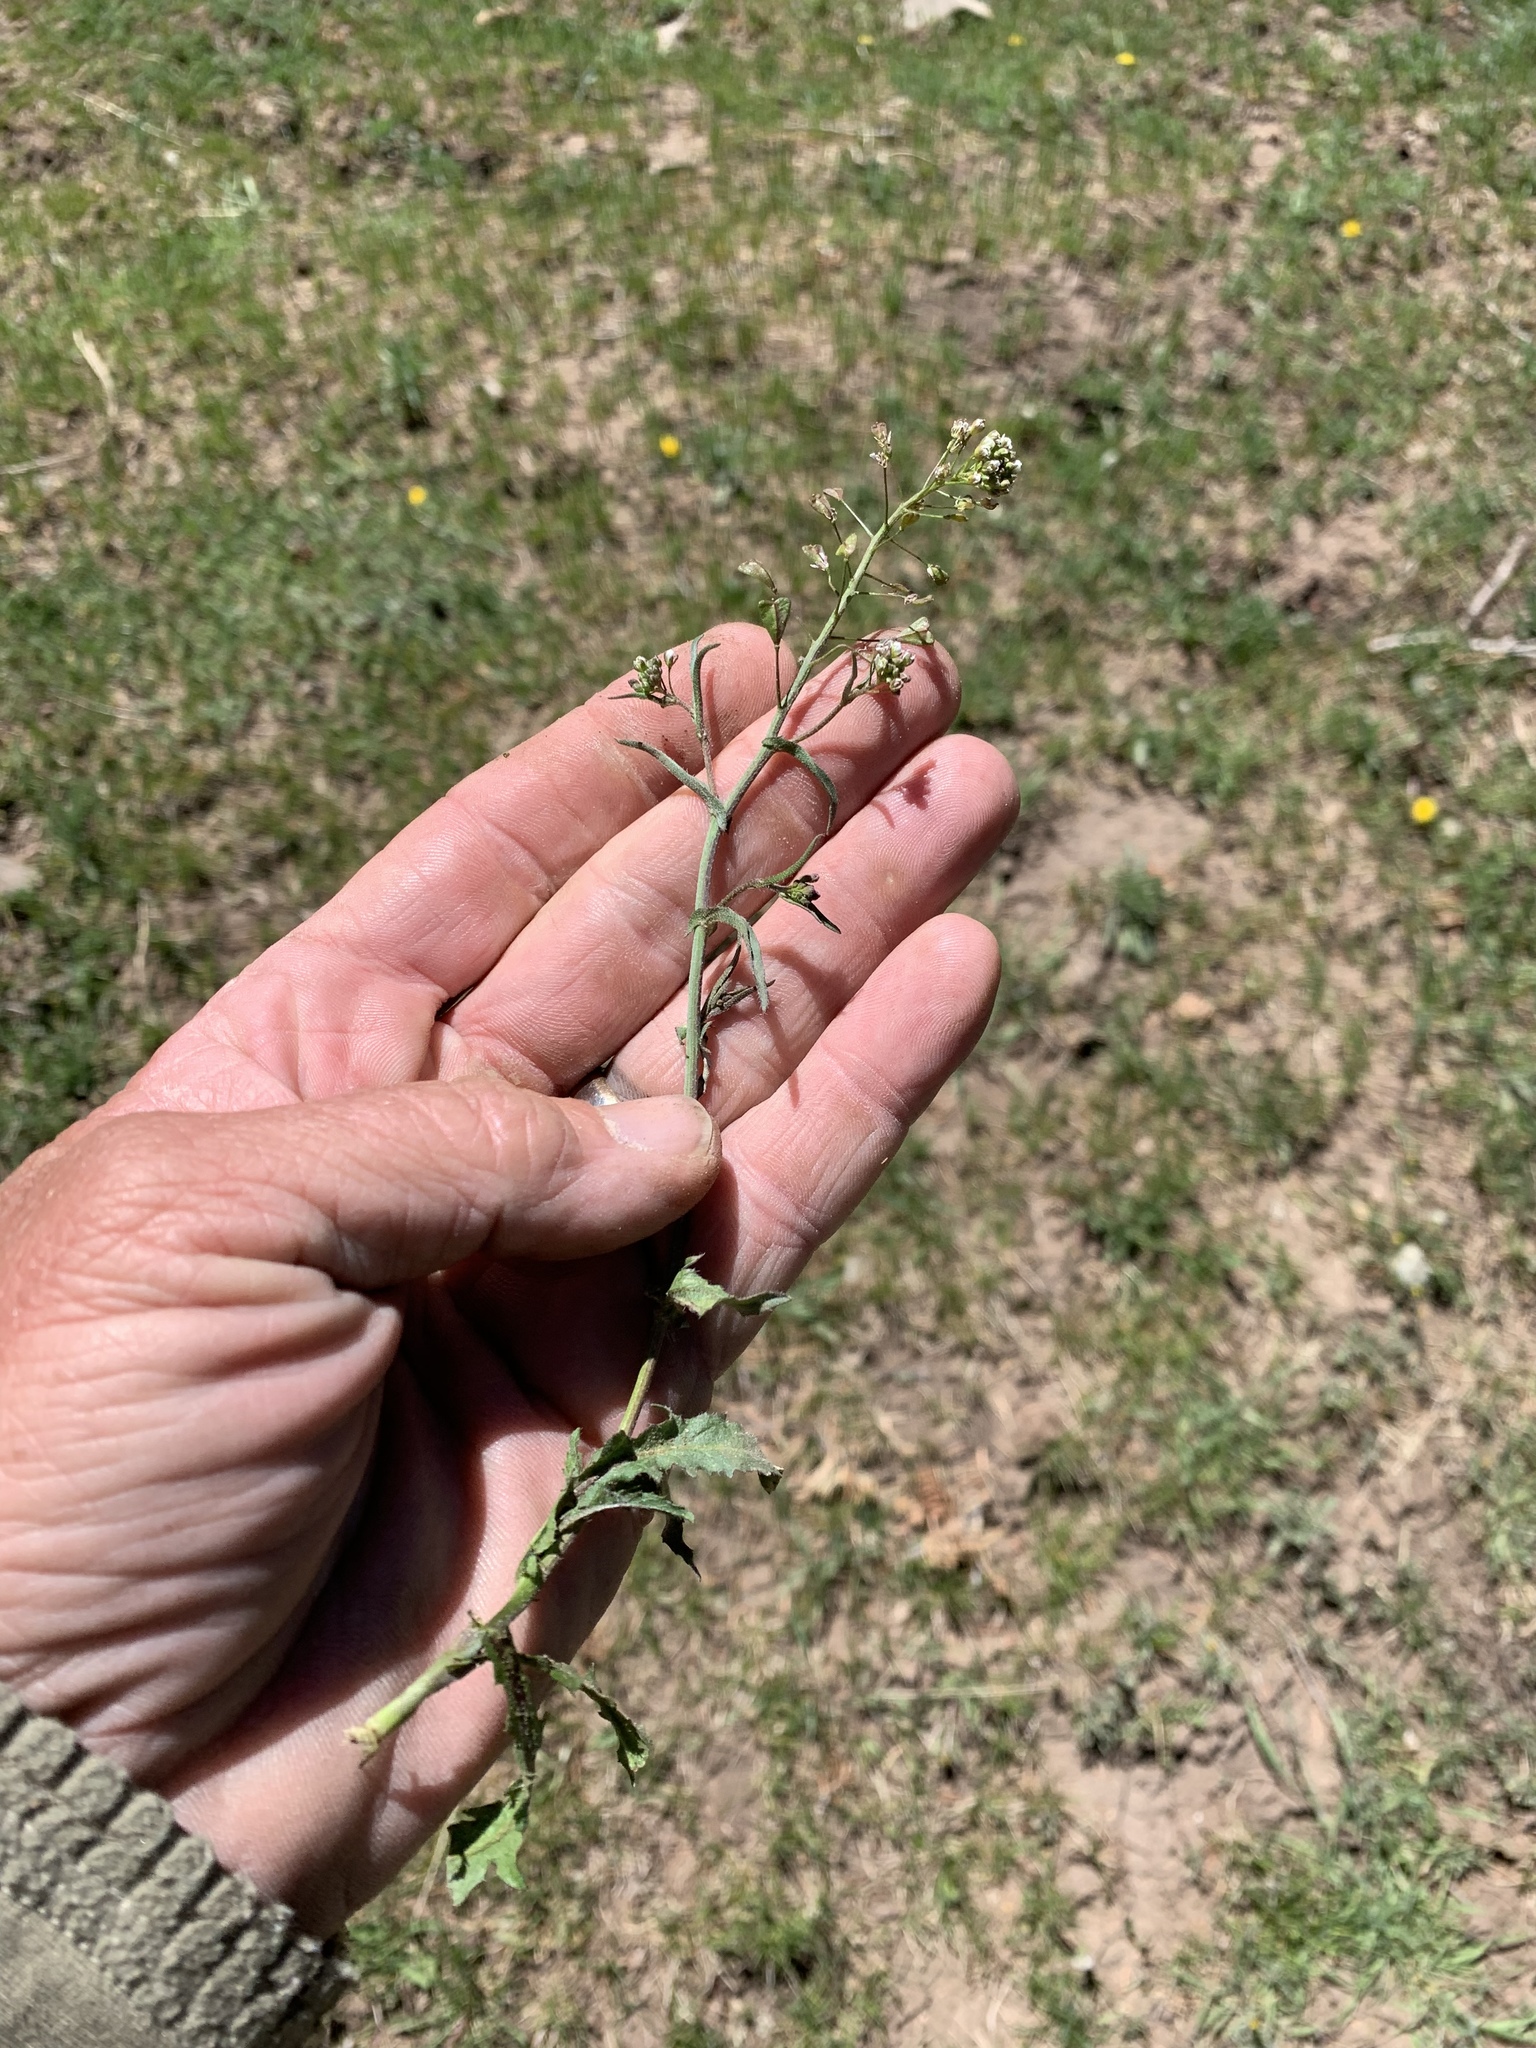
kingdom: Plantae
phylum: Tracheophyta
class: Magnoliopsida
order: Brassicales
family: Brassicaceae
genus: Capsella
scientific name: Capsella bursa-pastoris
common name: Shepherd's purse
